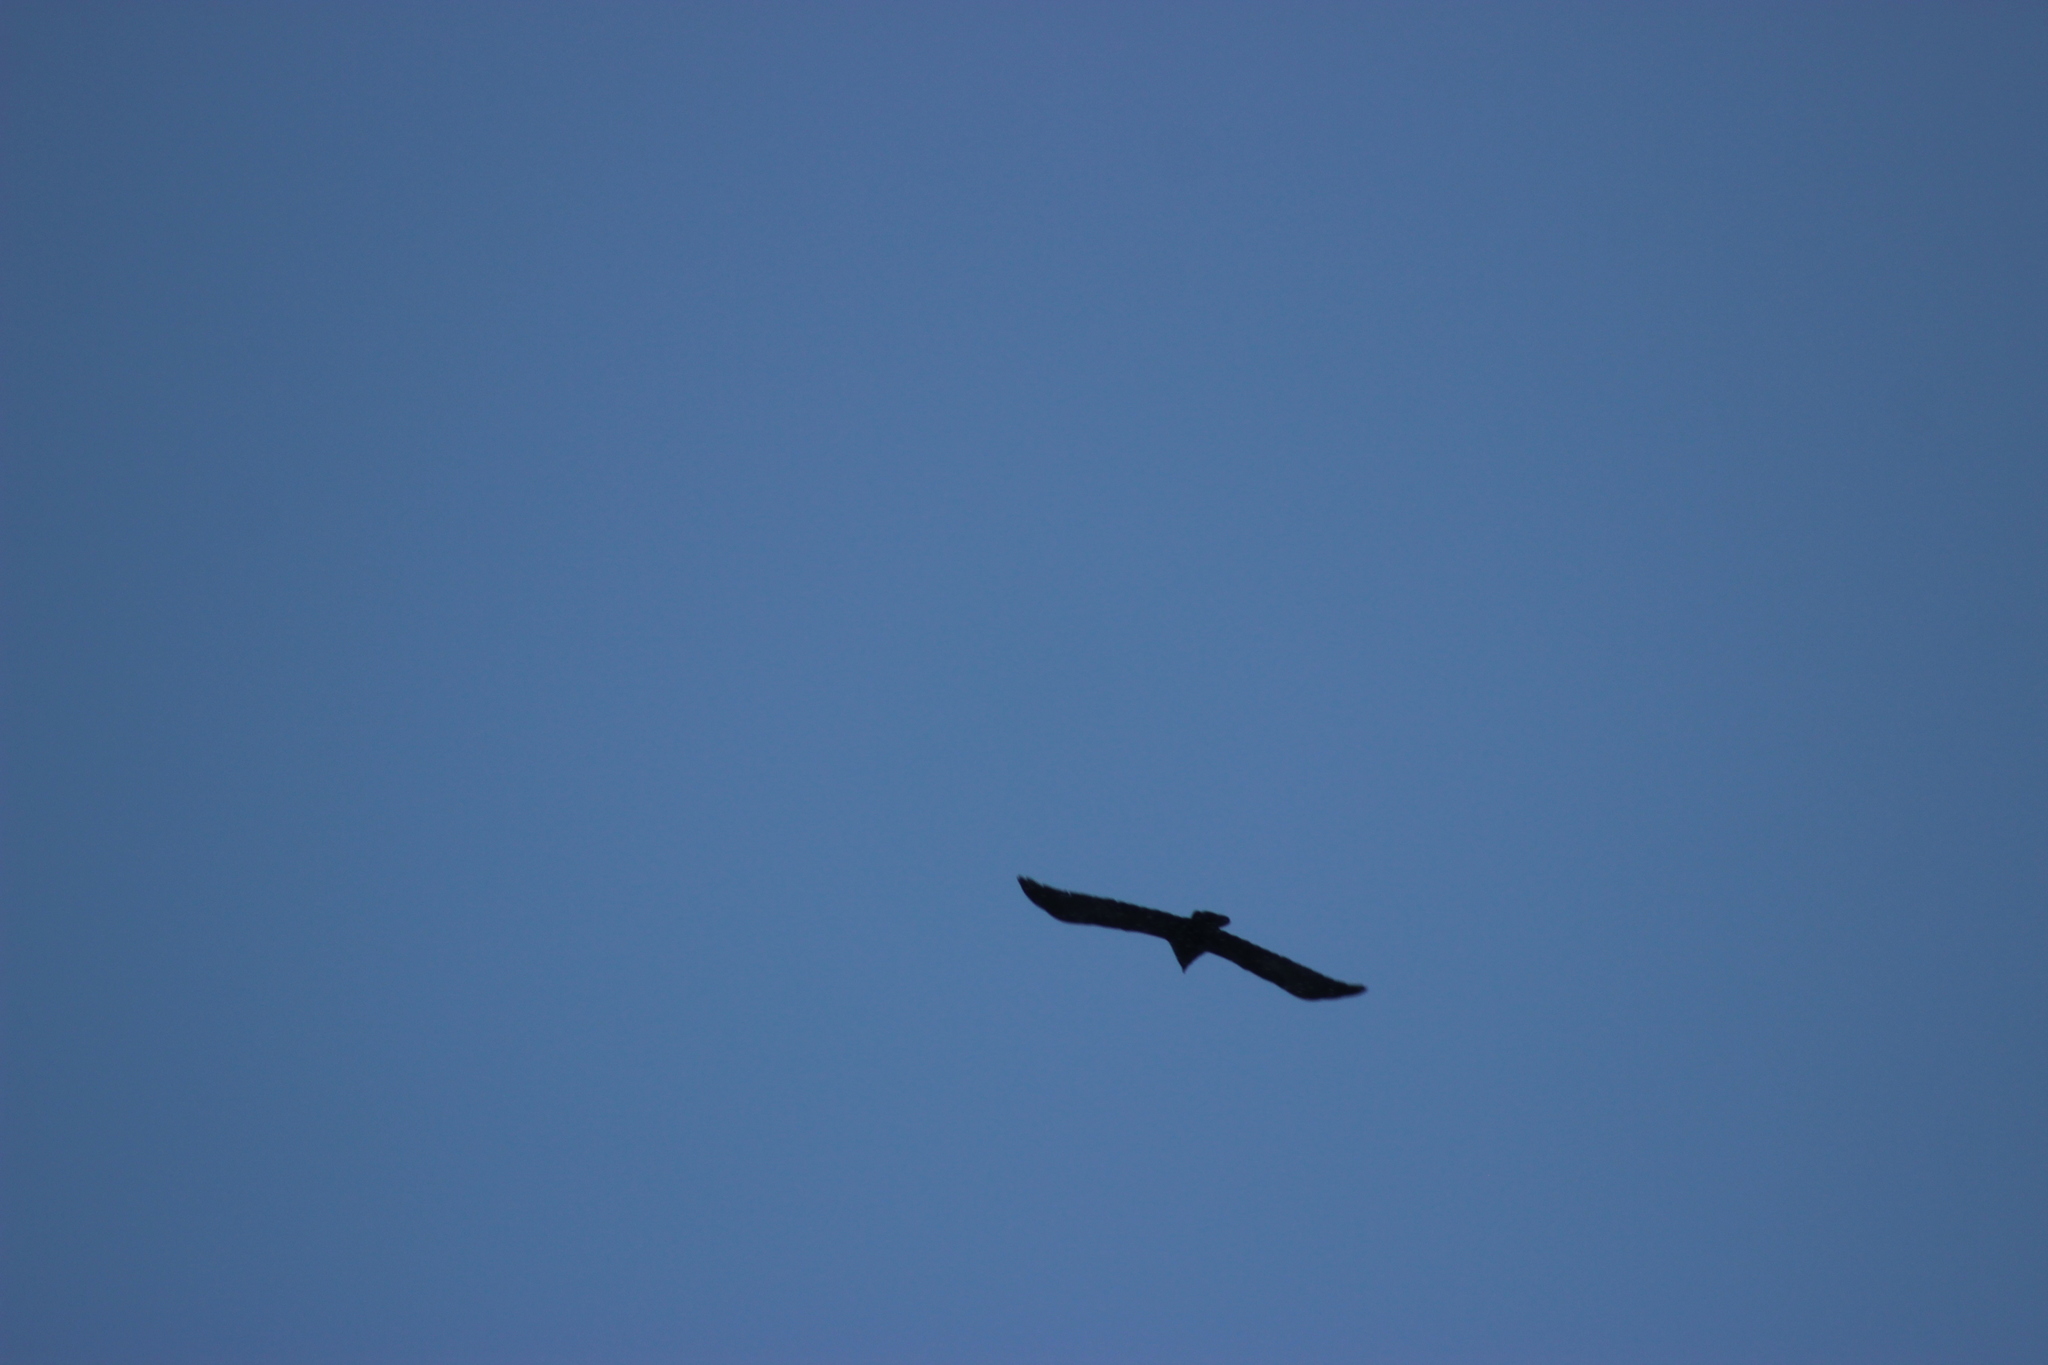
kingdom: Animalia
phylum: Chordata
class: Aves
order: Passeriformes
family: Corvidae
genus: Corvus
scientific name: Corvus corax
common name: Common raven
